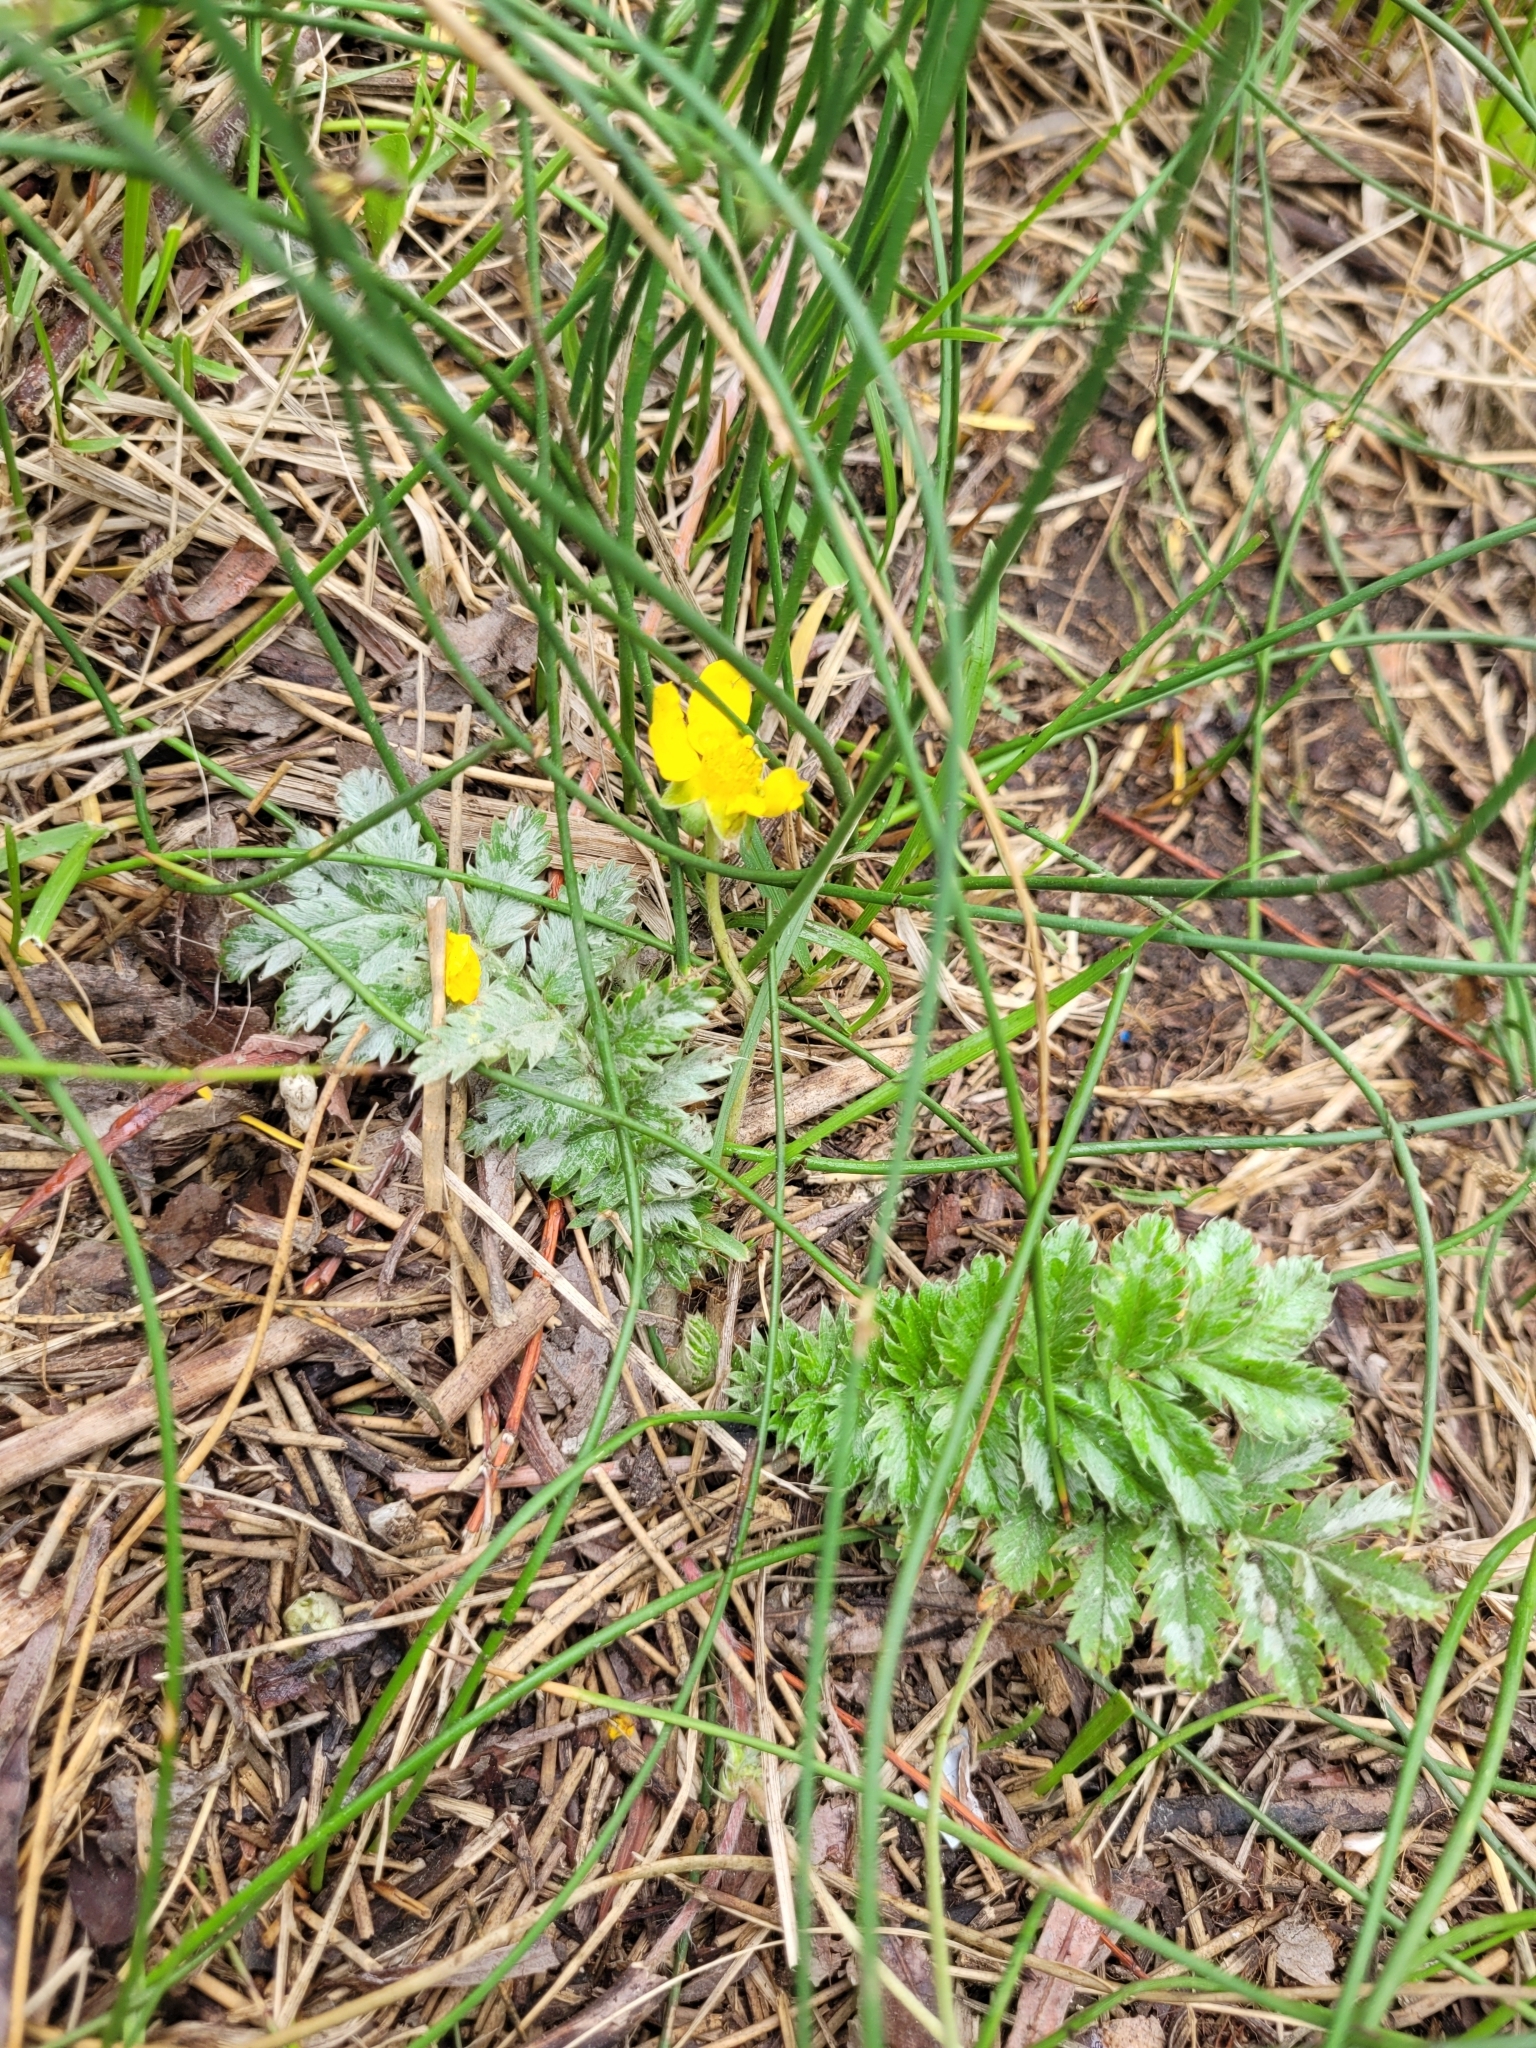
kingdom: Plantae
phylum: Tracheophyta
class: Magnoliopsida
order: Rosales
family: Rosaceae
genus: Argentina
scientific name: Argentina anserina
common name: Common silverweed
